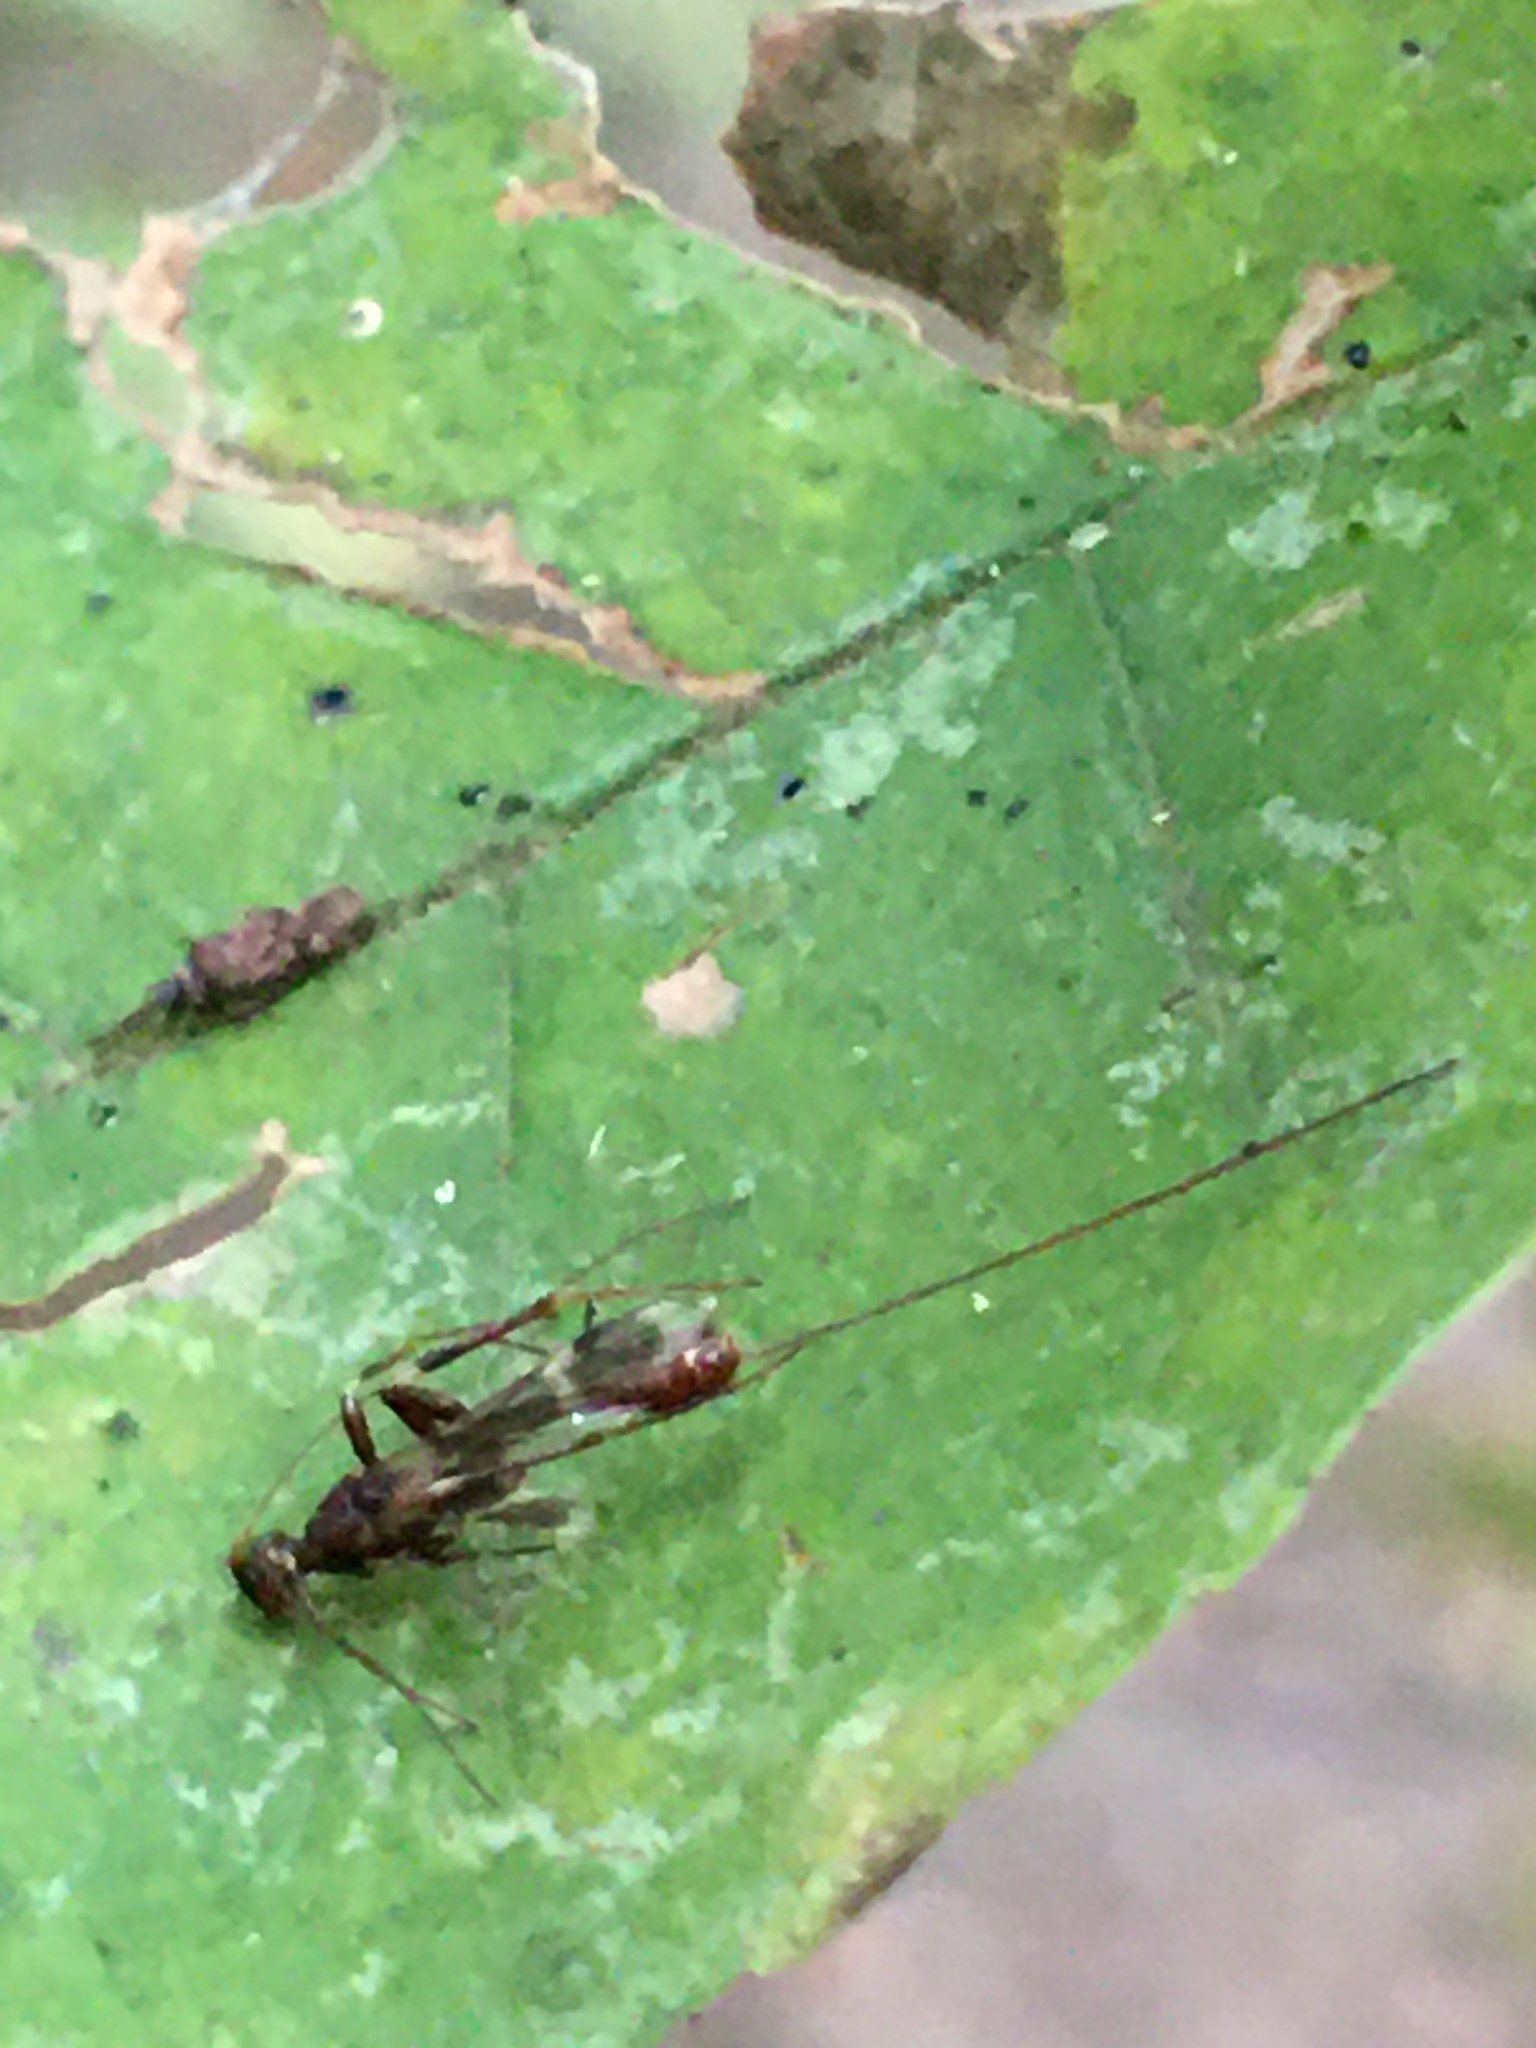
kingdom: Animalia
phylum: Arthropoda
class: Insecta
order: Hymenoptera
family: Braconidae
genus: Spathius
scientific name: Spathius elegans
